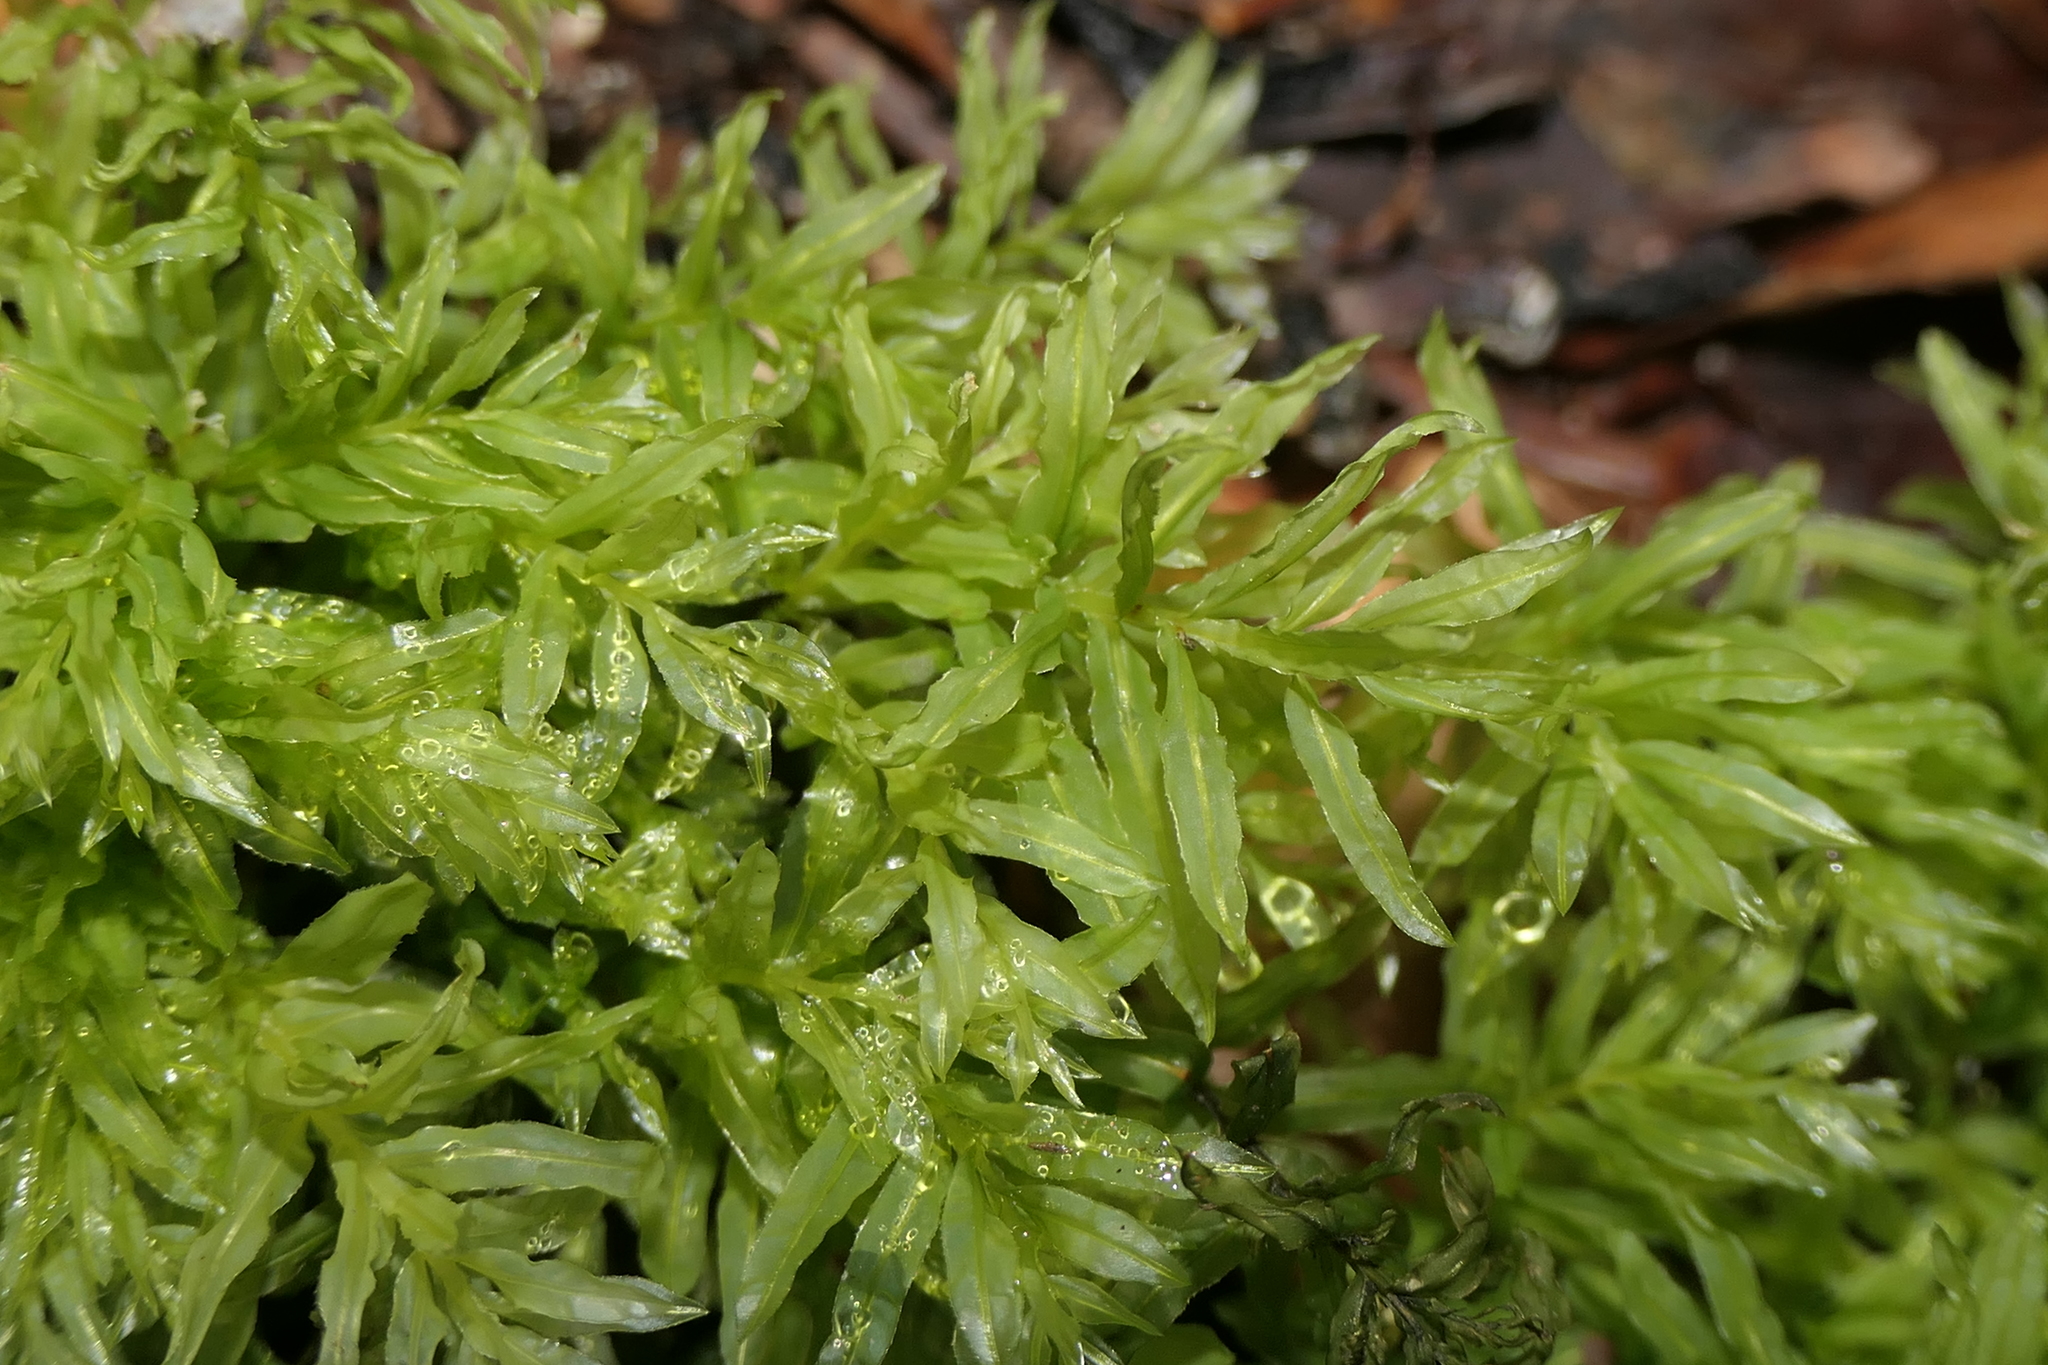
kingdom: Plantae
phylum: Bryophyta
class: Bryopsida
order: Bryales
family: Mniaceae
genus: Plagiomnium
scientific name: Plagiomnium undulatum
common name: Hart's-tongue thyme-moss
